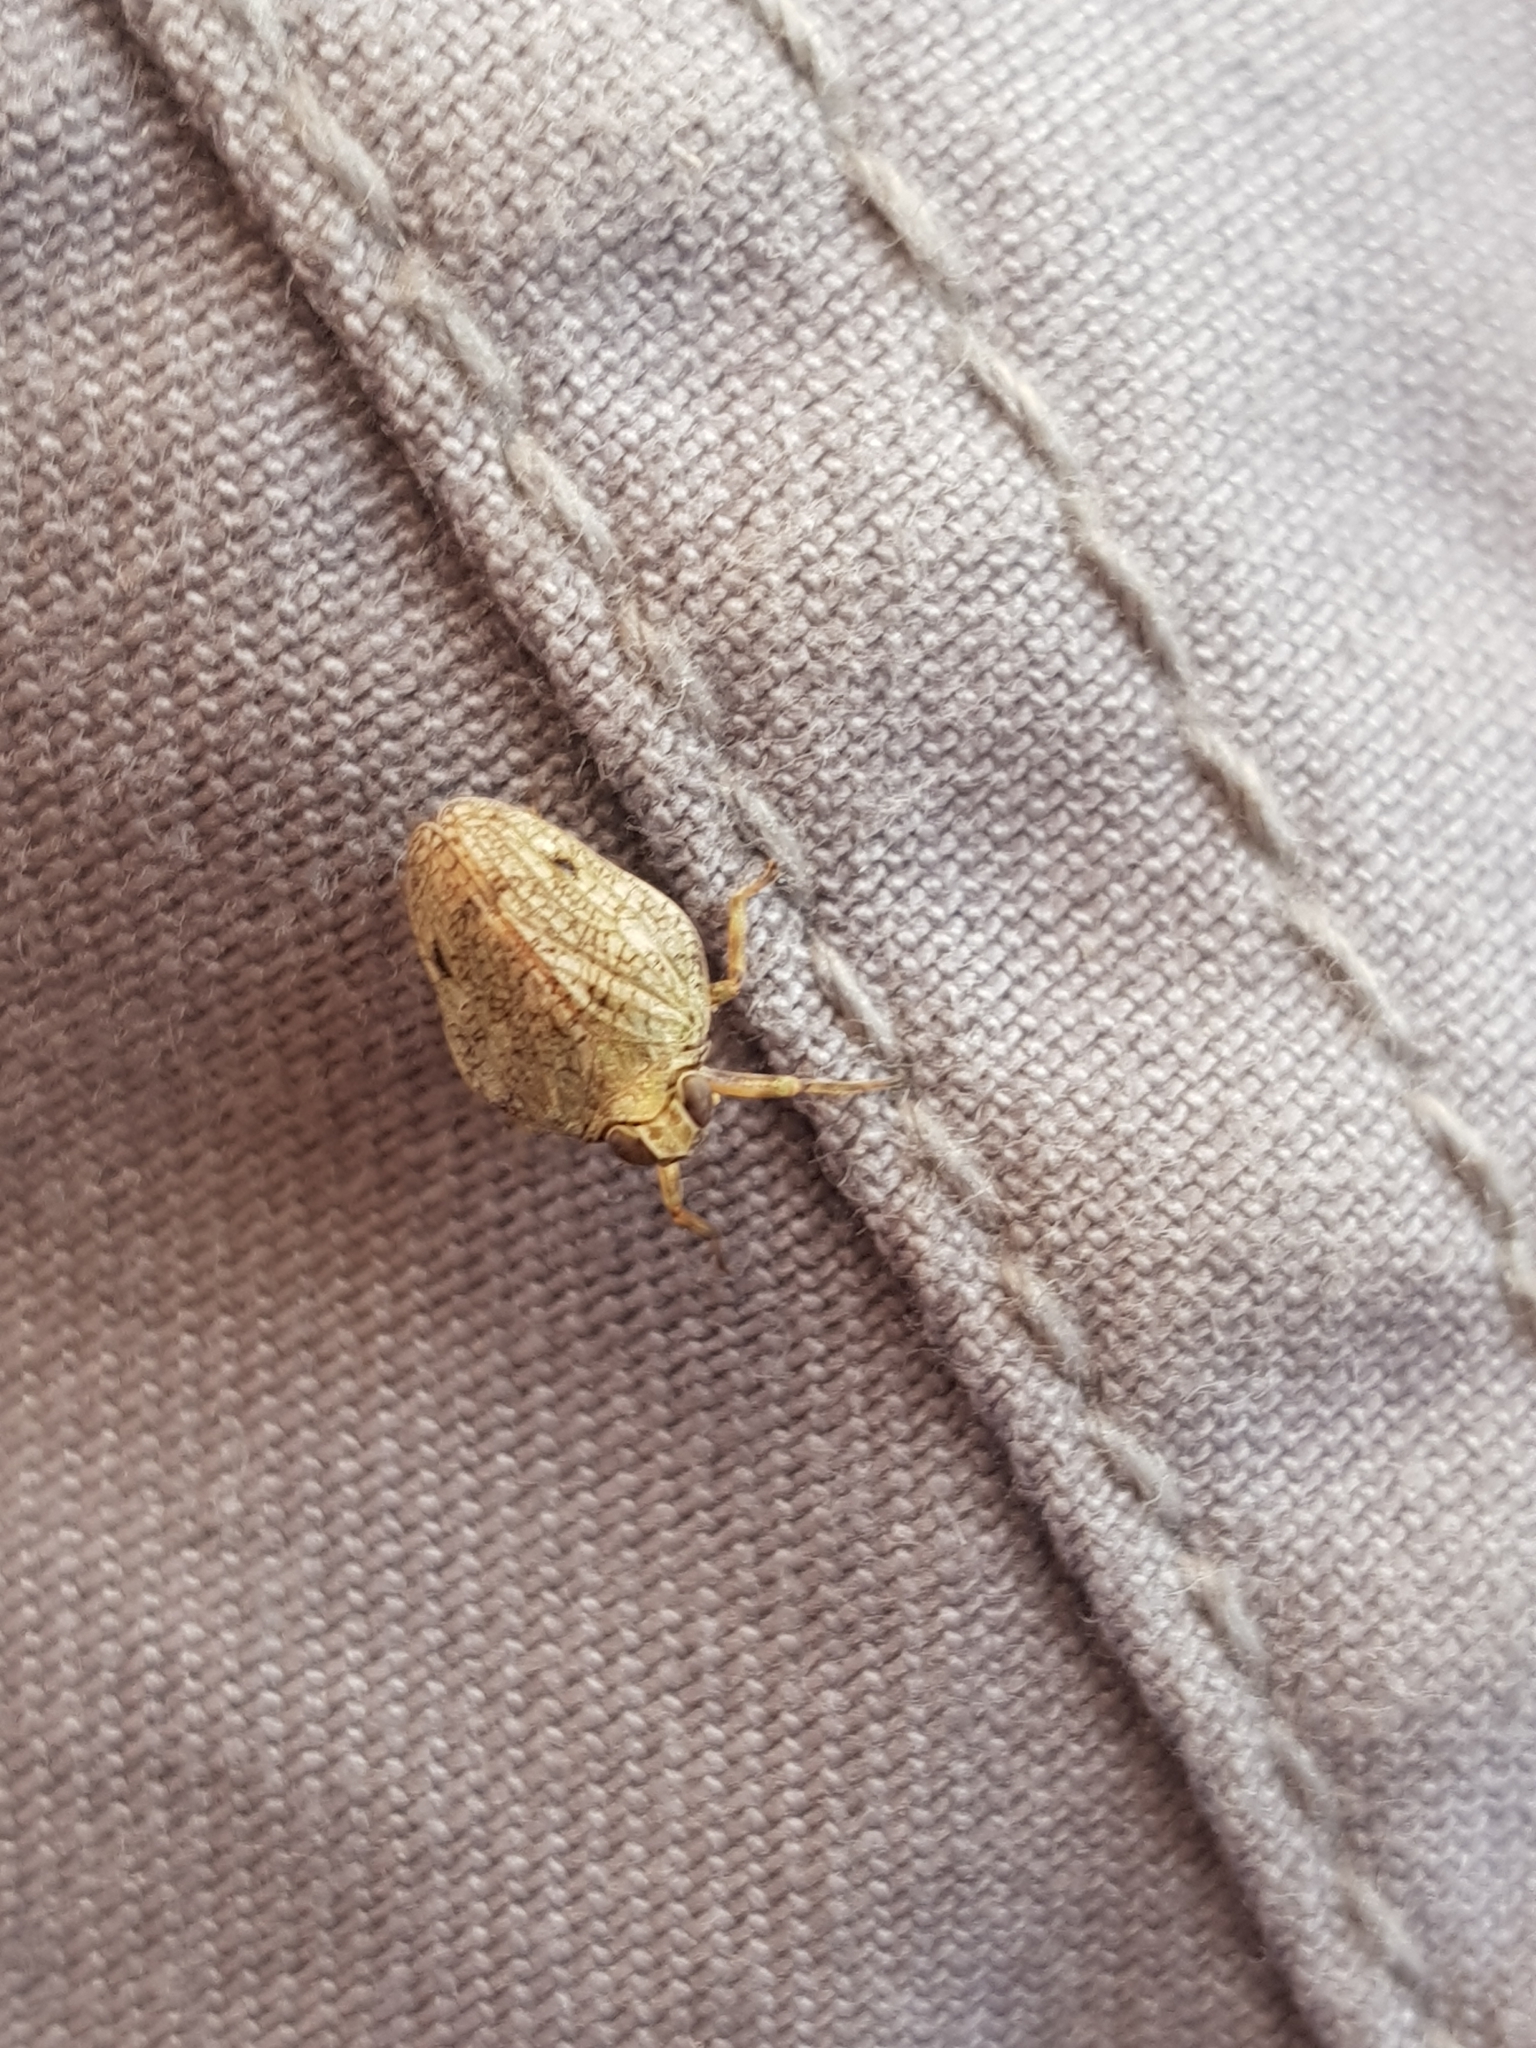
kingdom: Animalia
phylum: Arthropoda
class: Insecta
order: Hemiptera
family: Issidae
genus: Issus
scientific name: Issus coleoptratus
